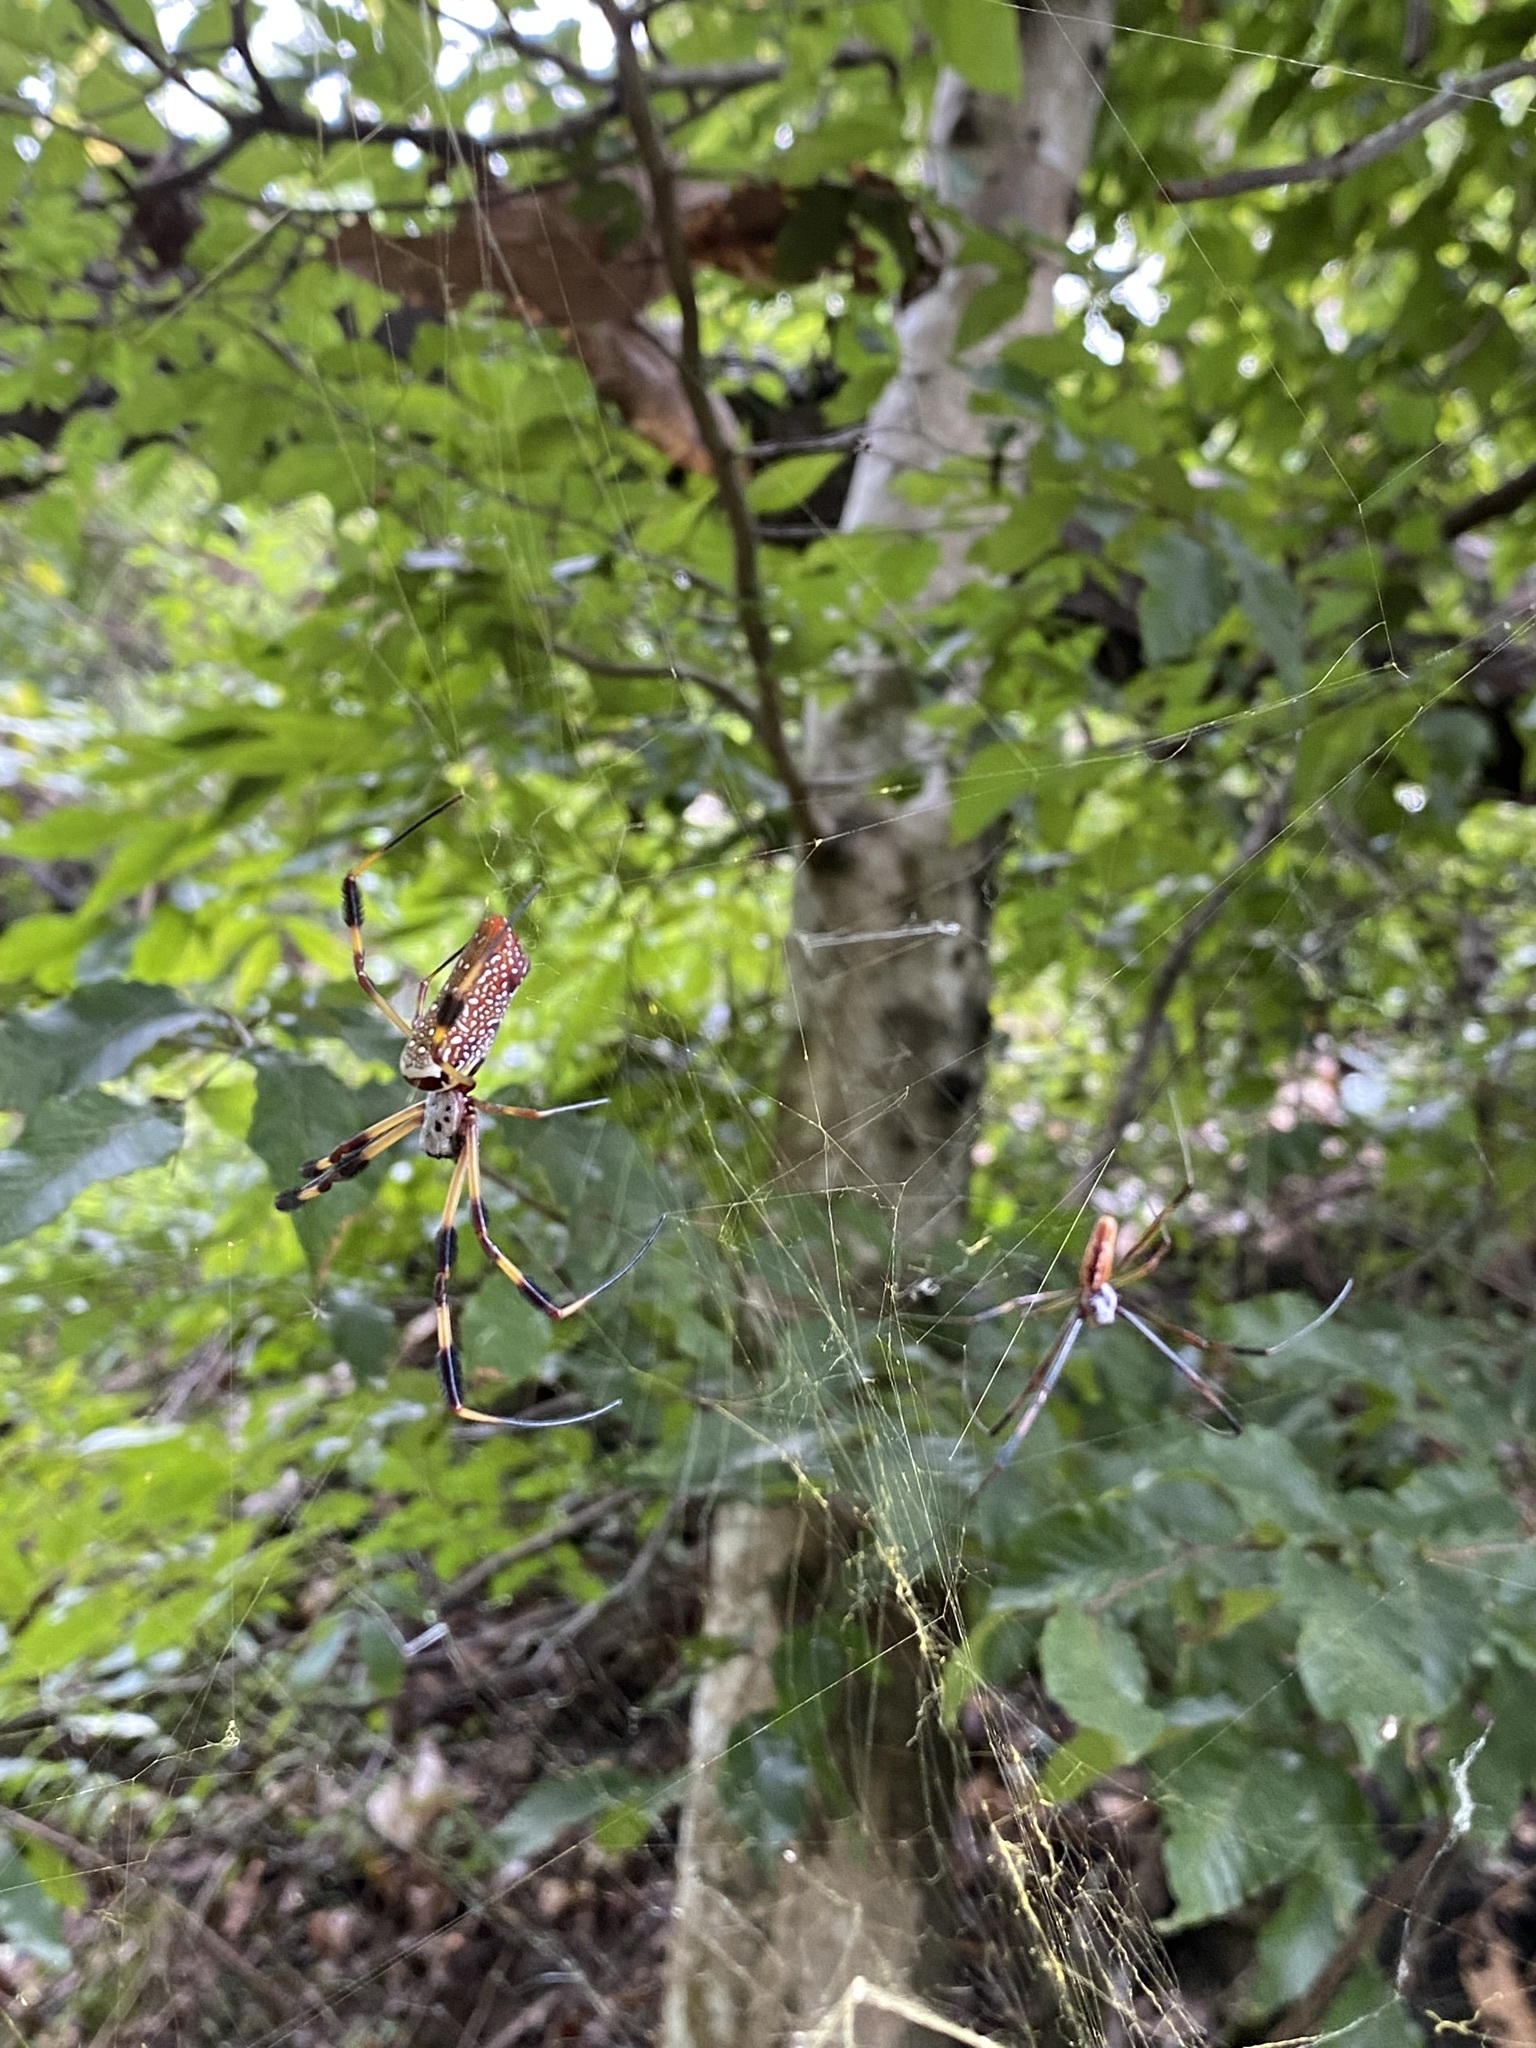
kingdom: Animalia
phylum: Arthropoda
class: Arachnida
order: Araneae
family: Araneidae
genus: Trichonephila
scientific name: Trichonephila clavipes
